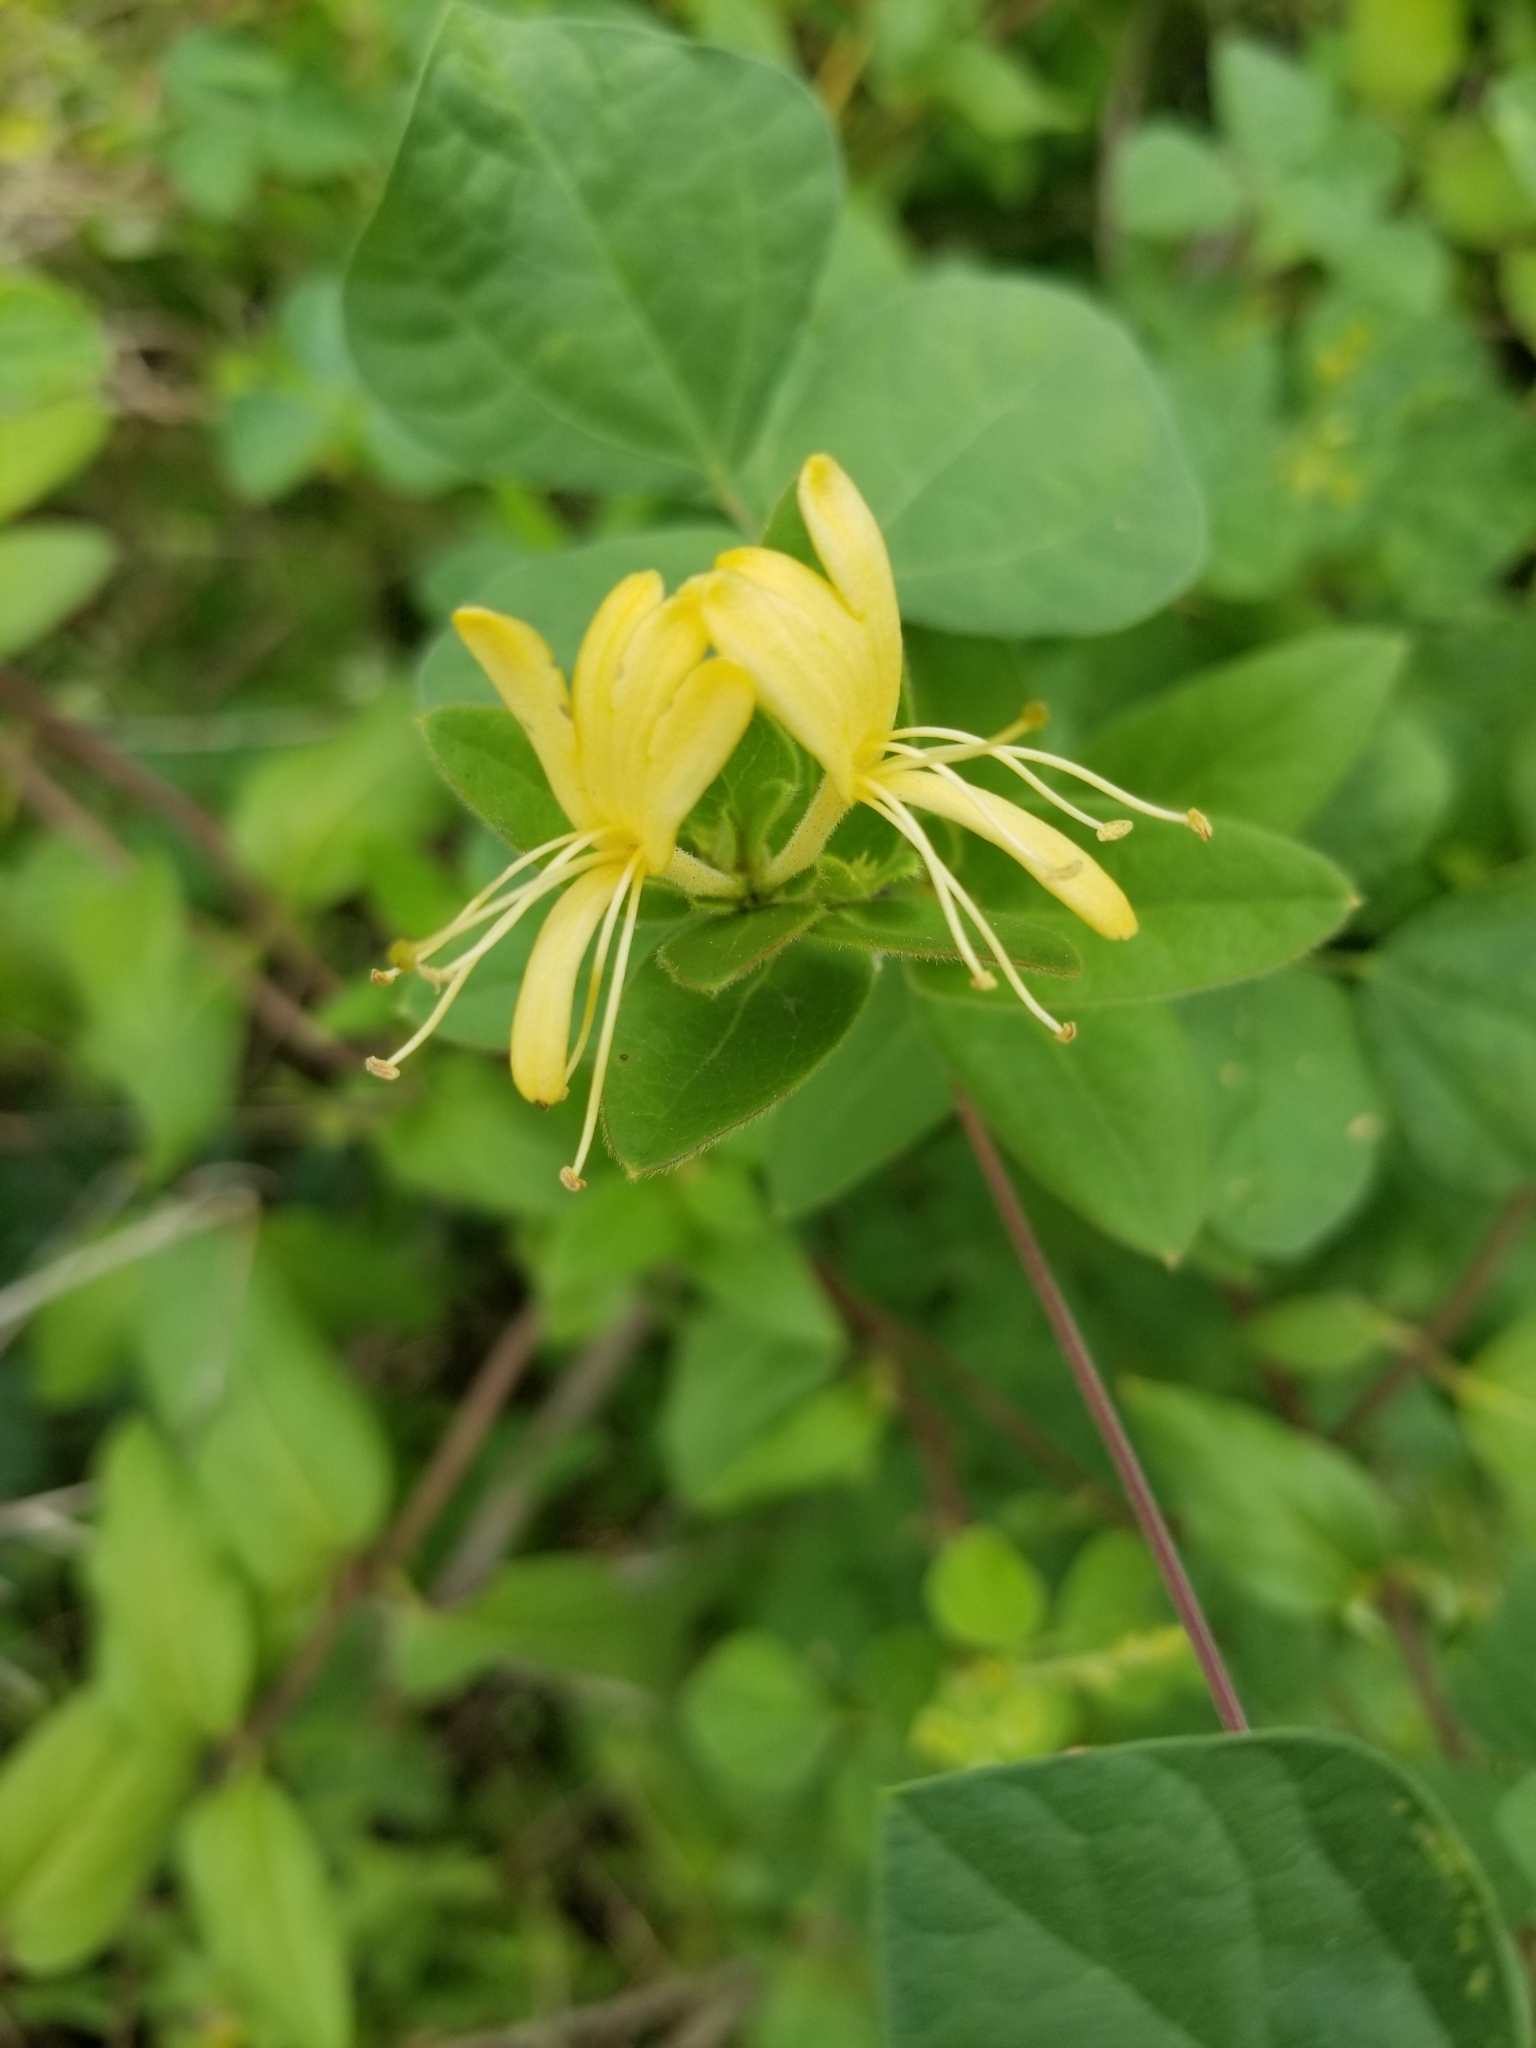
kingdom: Plantae
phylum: Tracheophyta
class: Magnoliopsida
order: Dipsacales
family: Caprifoliaceae
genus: Lonicera
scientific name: Lonicera japonica
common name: Japanese honeysuckle
